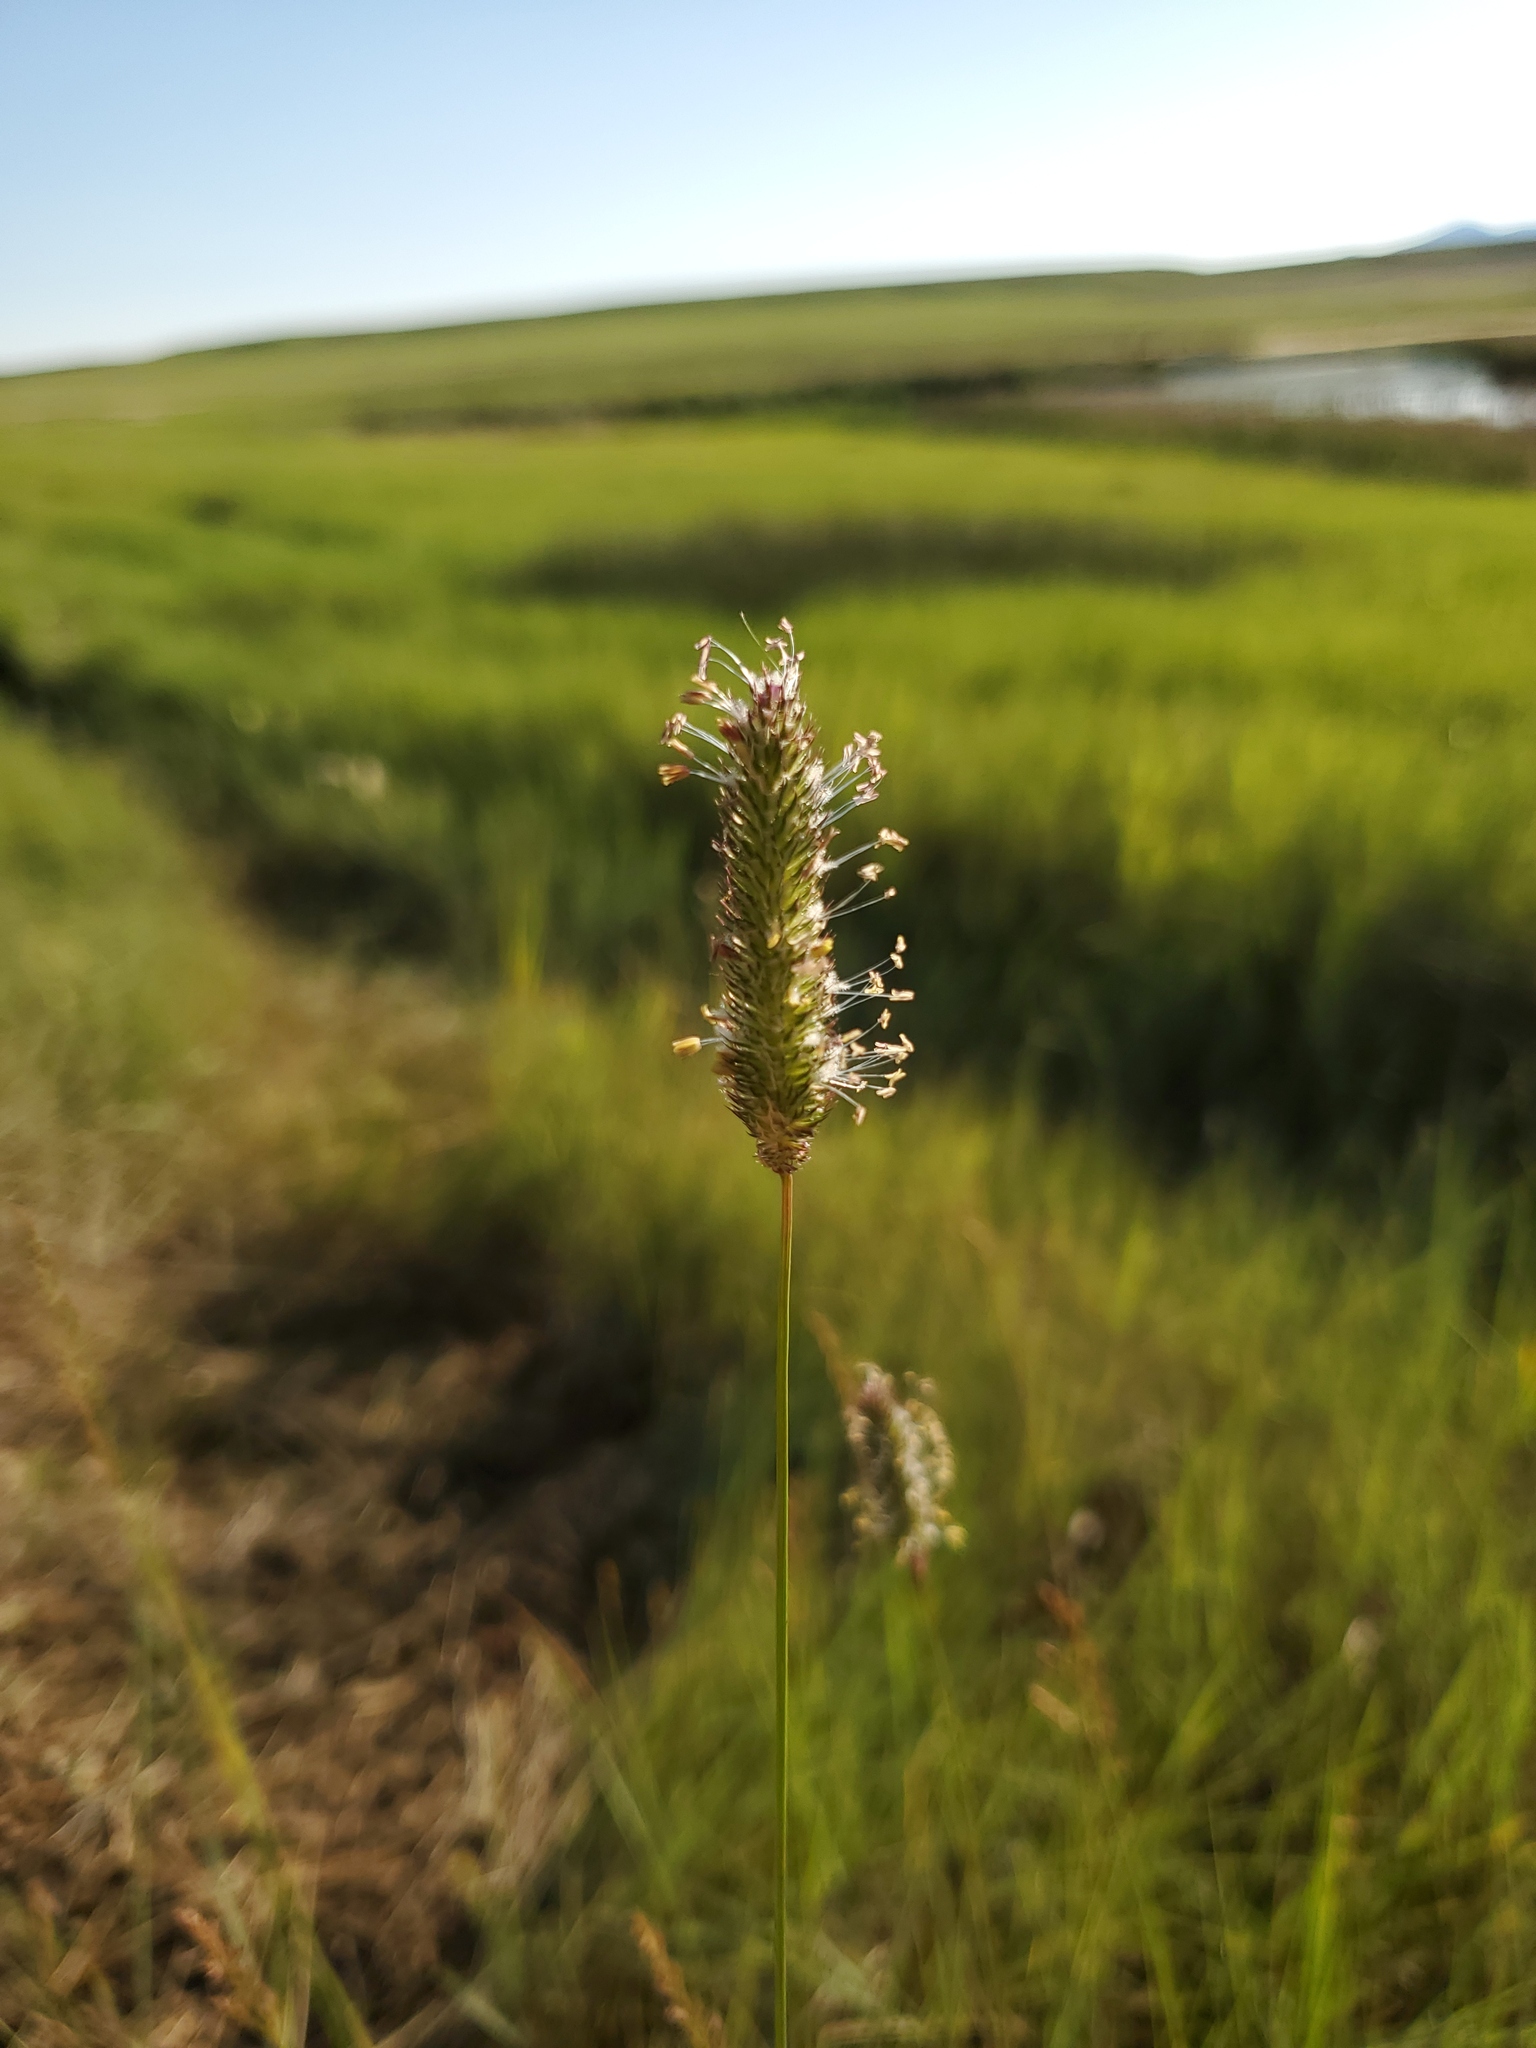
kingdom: Plantae
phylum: Tracheophyta
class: Liliopsida
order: Poales
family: Poaceae
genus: Phleum
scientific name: Phleum pratense
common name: Timothy grass
